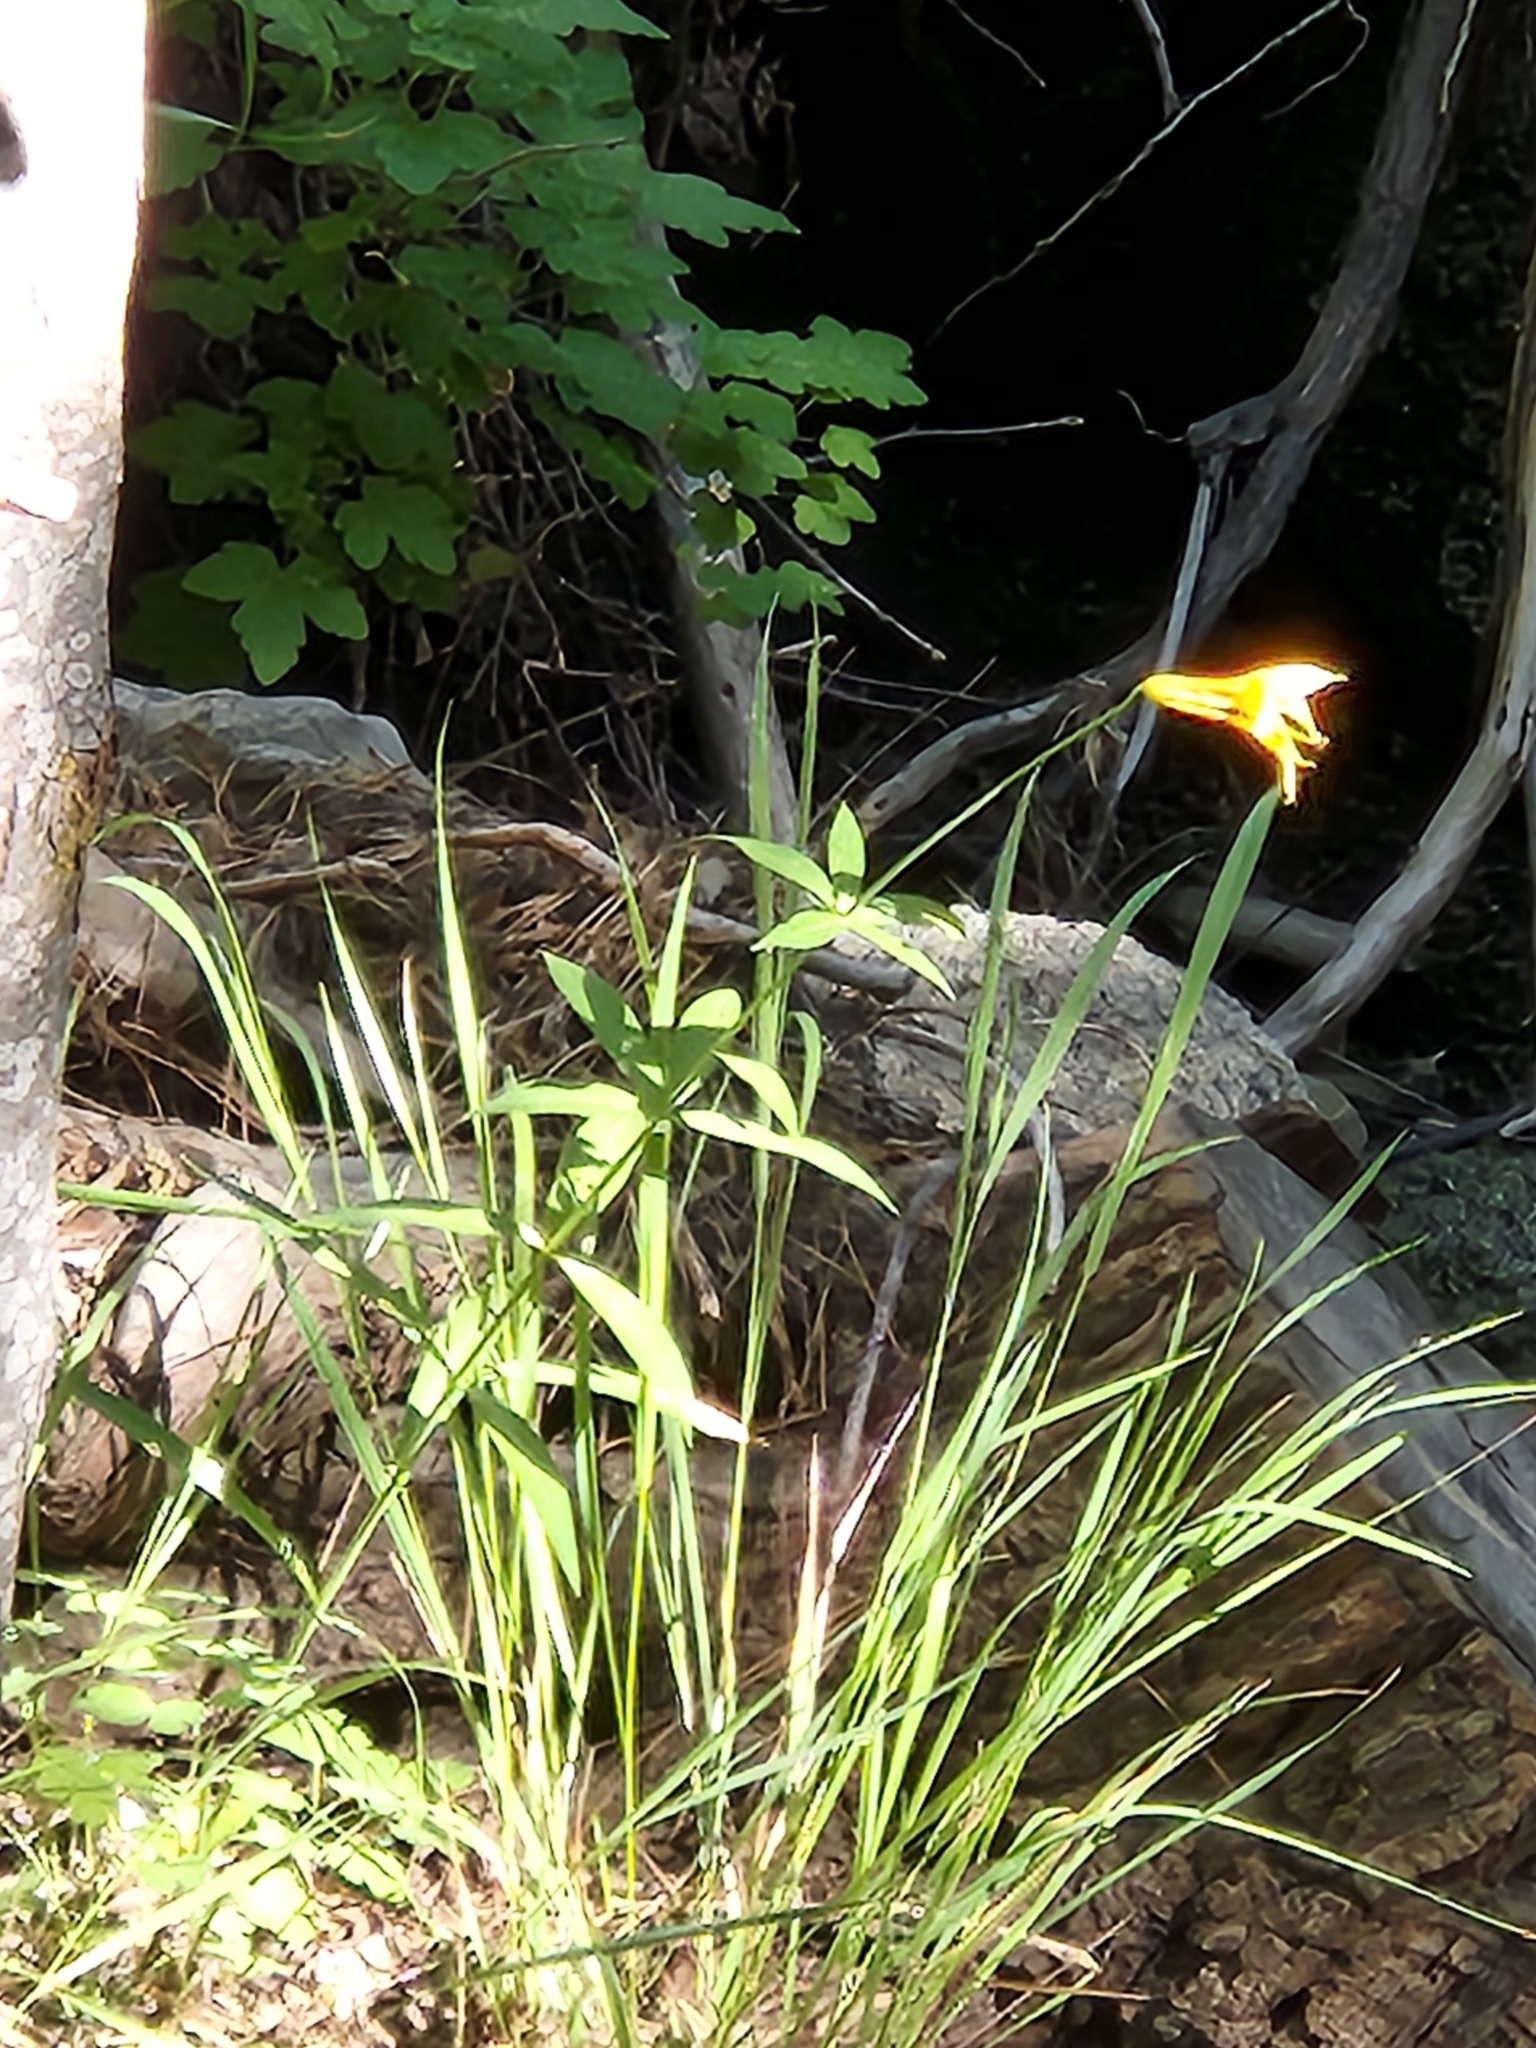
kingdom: Plantae
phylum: Tracheophyta
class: Liliopsida
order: Liliales
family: Liliaceae
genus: Lilium
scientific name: Lilium parryi
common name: Lemon lily
